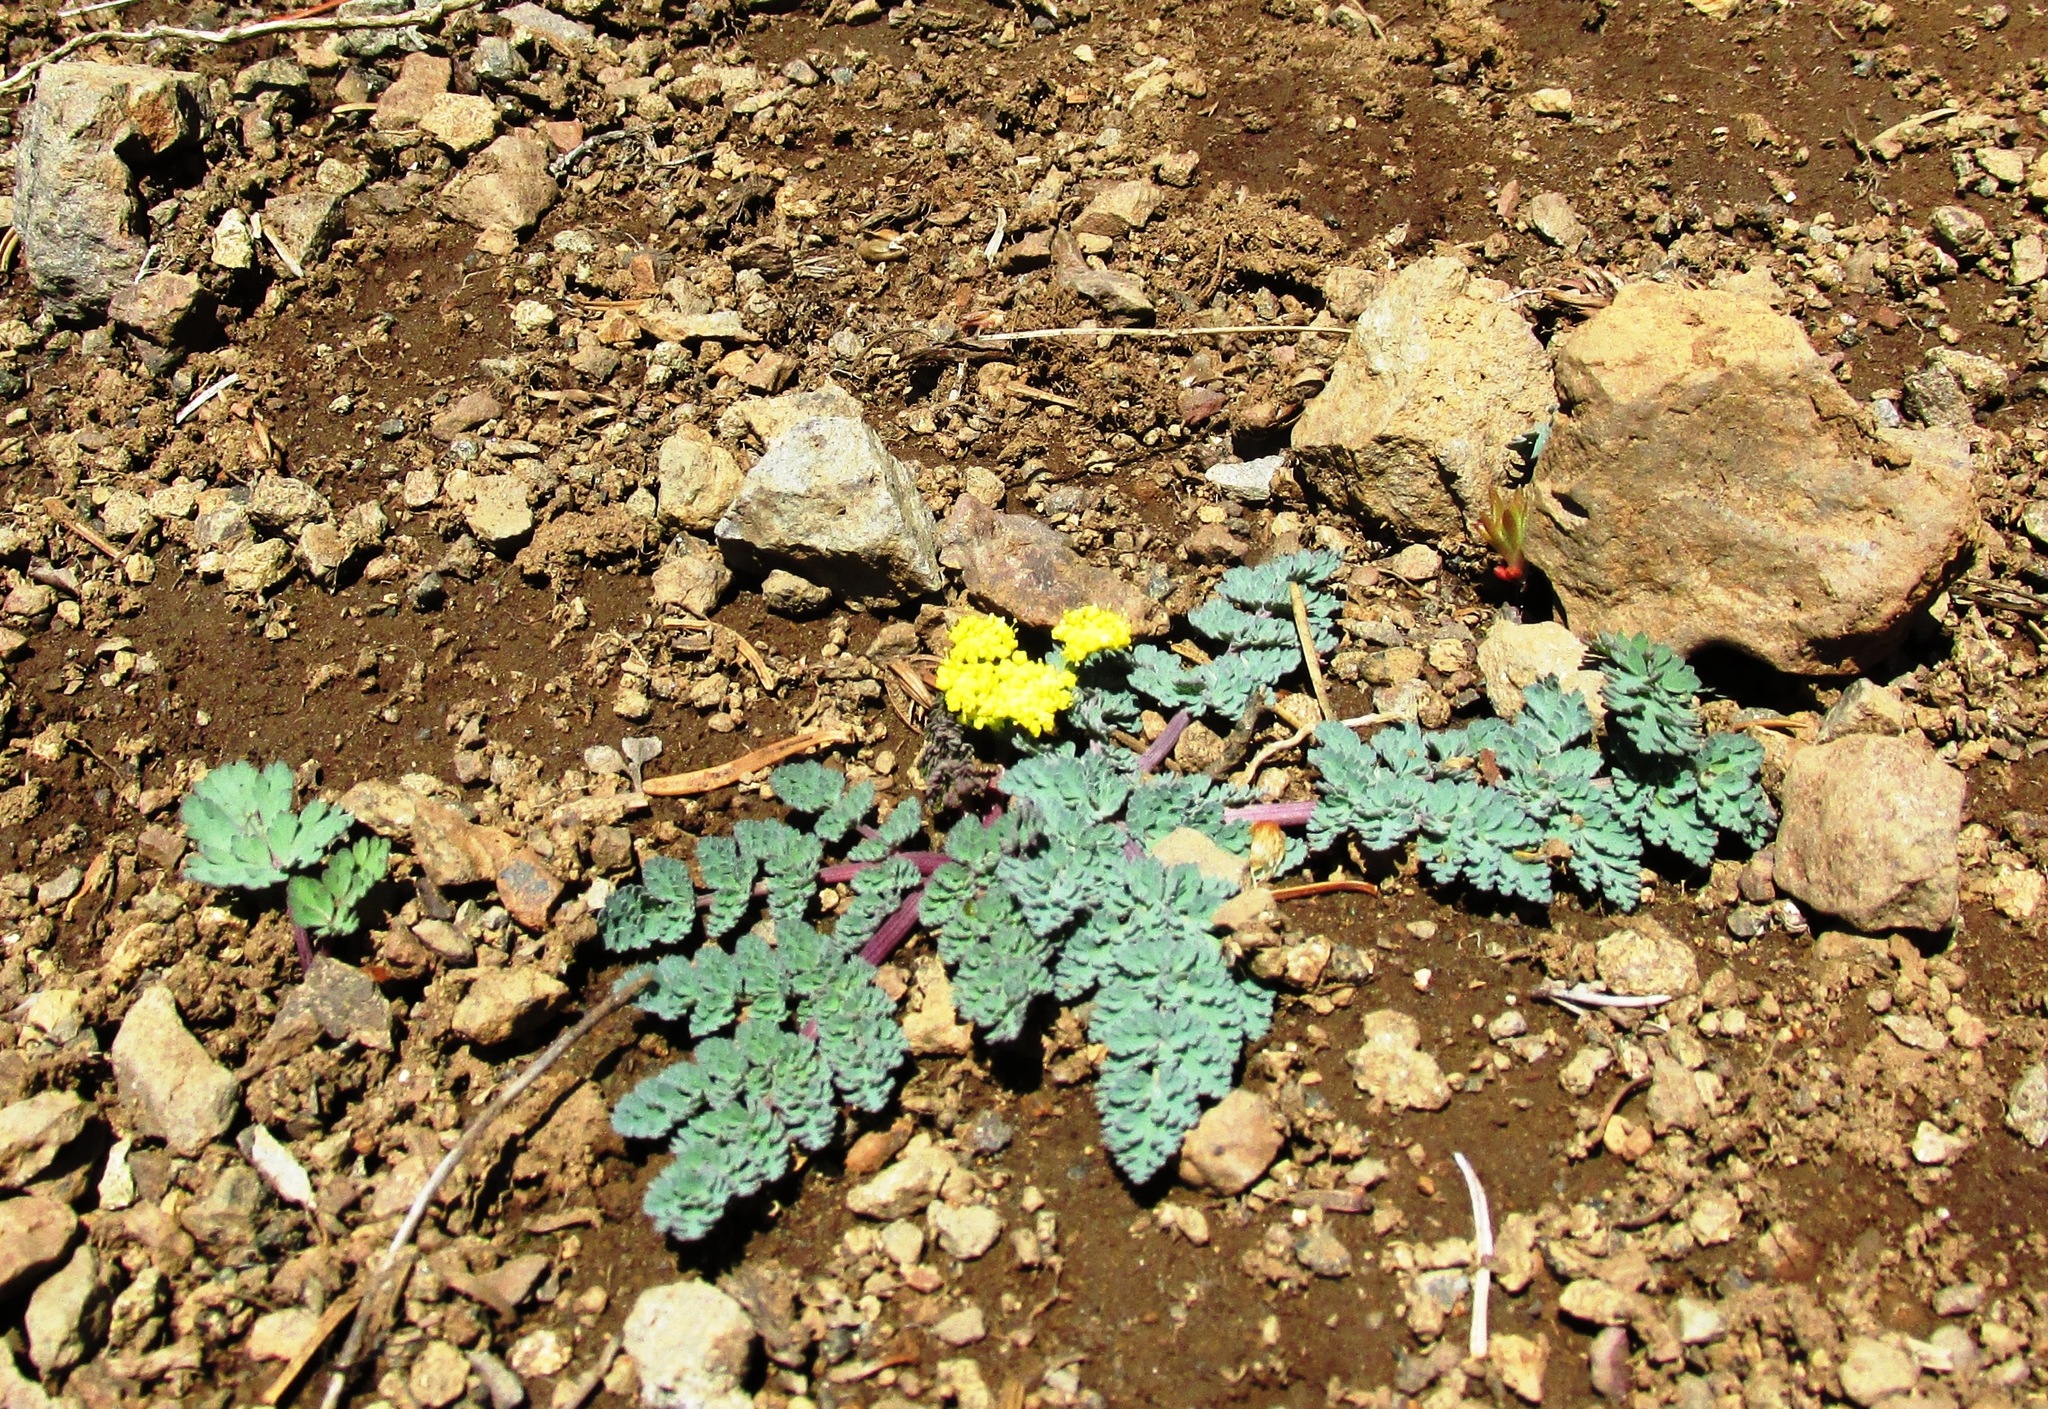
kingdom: Plantae
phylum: Tracheophyta
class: Magnoliopsida
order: Apiales
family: Apiaceae
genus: Lomatium
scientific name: Lomatium martindalei
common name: Cascade desert-parsley
